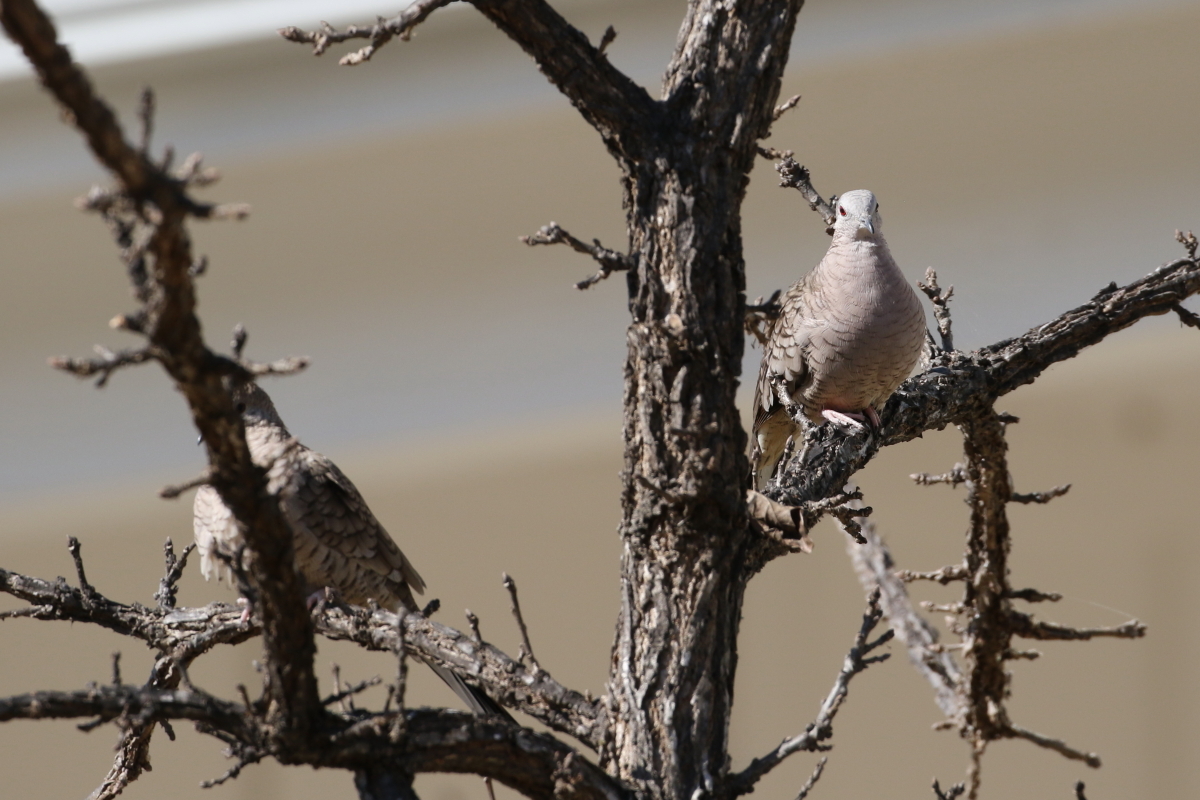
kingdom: Animalia
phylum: Chordata
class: Aves
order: Columbiformes
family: Columbidae
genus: Columbina
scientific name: Columbina inca
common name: Inca dove
